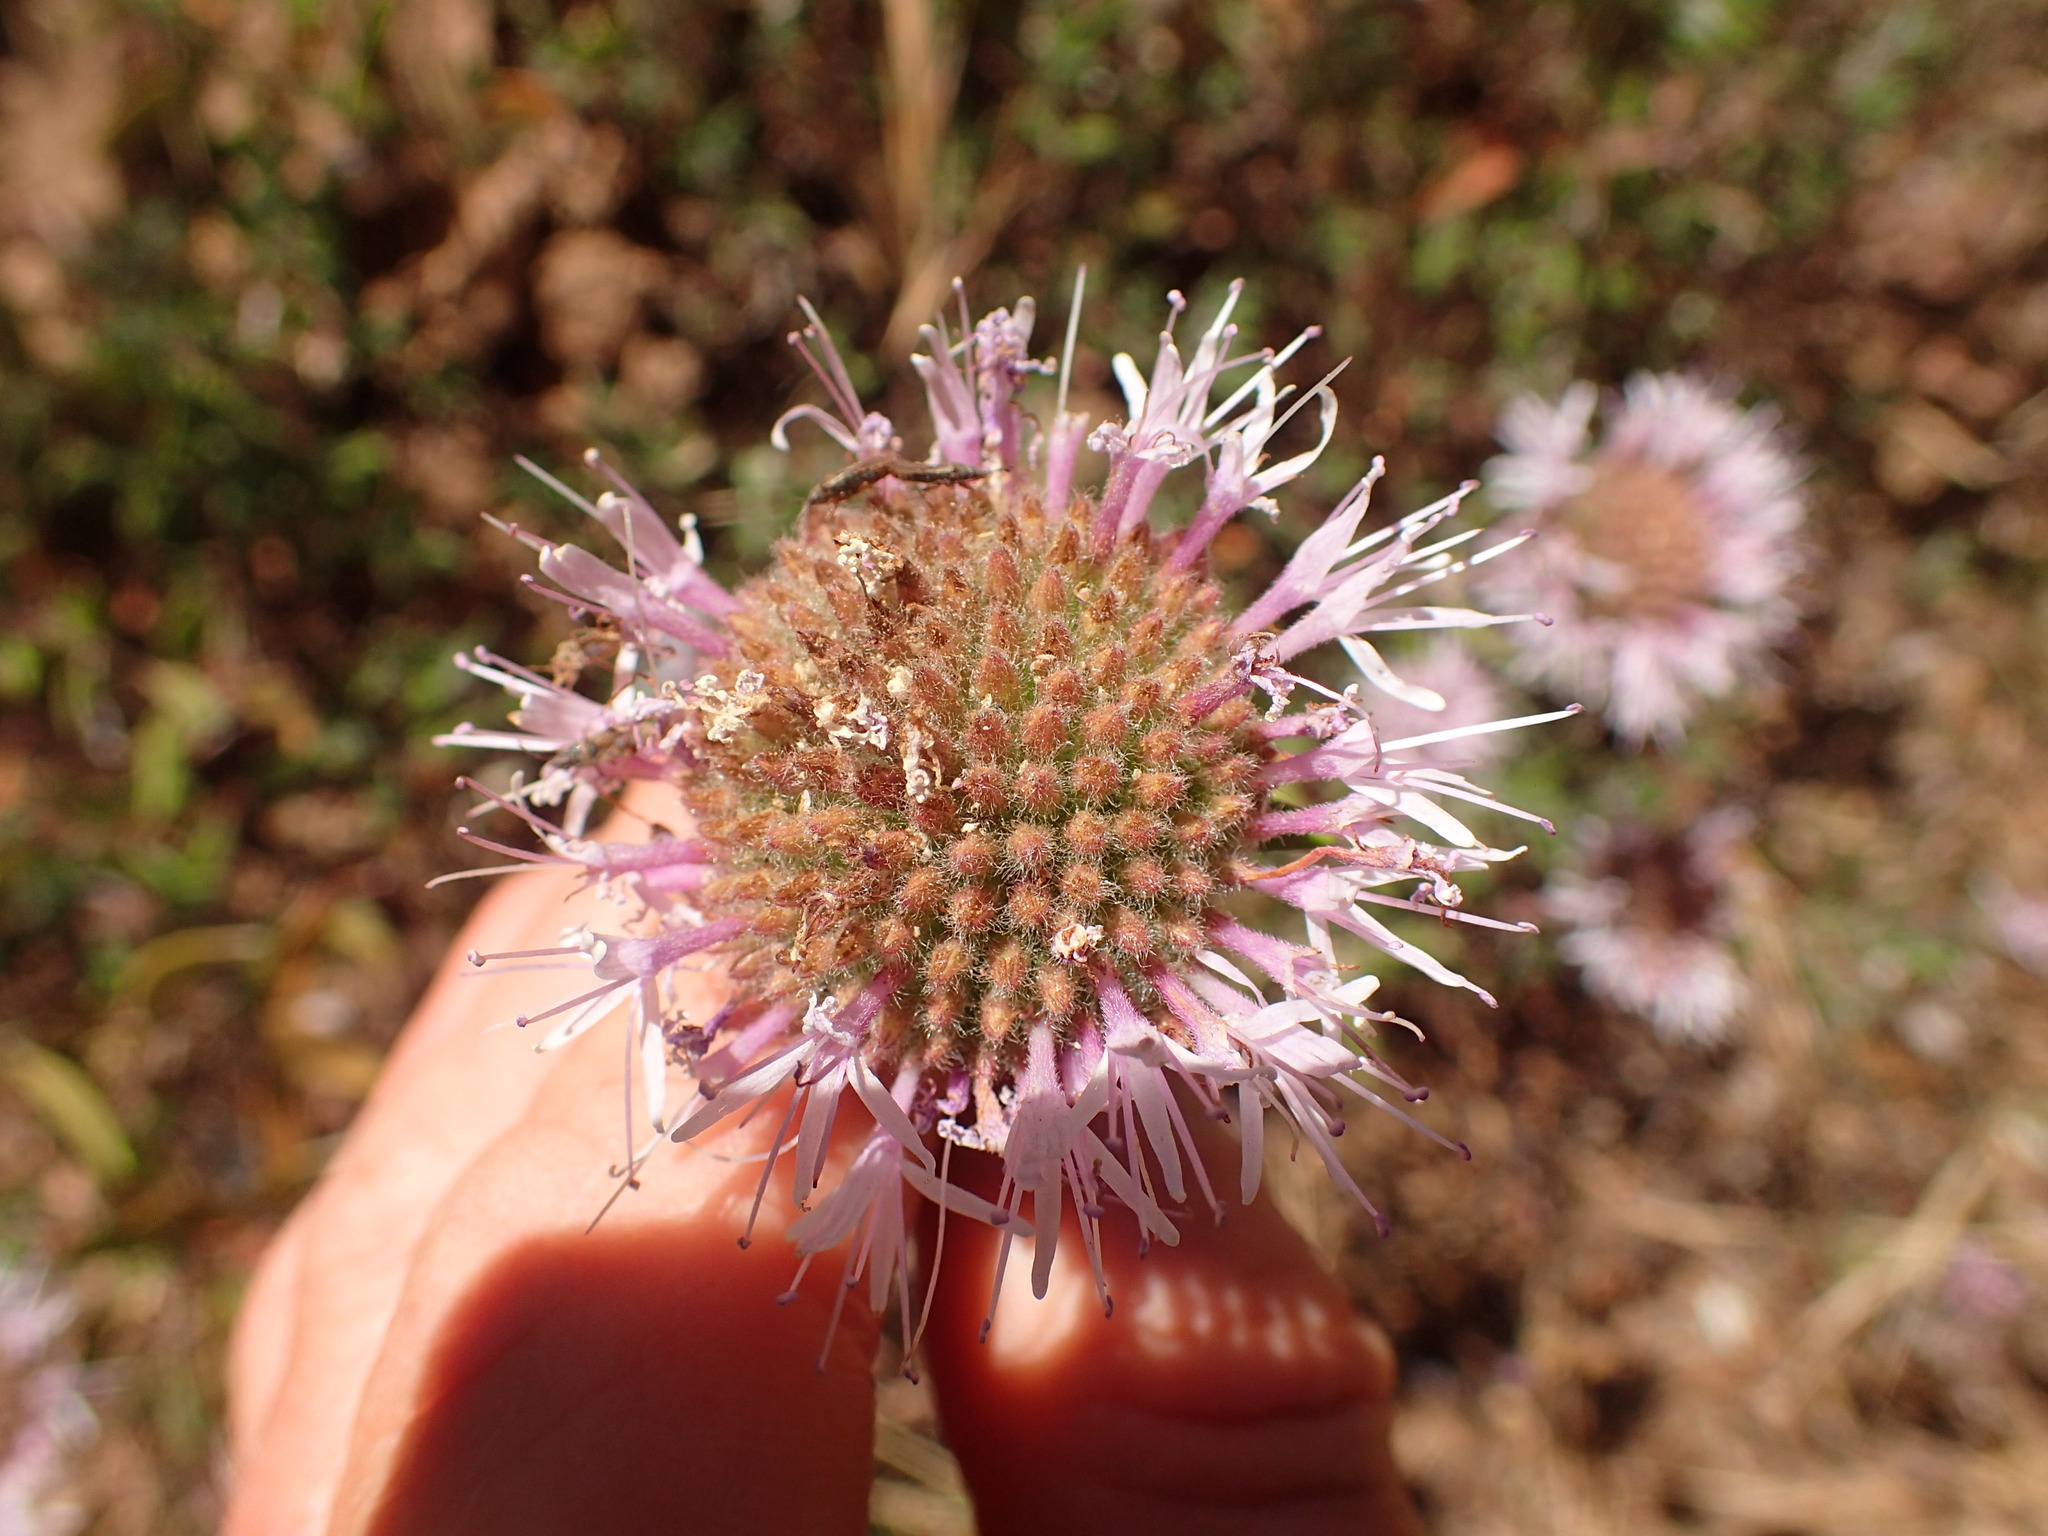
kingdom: Plantae
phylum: Tracheophyta
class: Magnoliopsida
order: Lamiales
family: Lamiaceae
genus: Monardella
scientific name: Monardella hypoleuca
